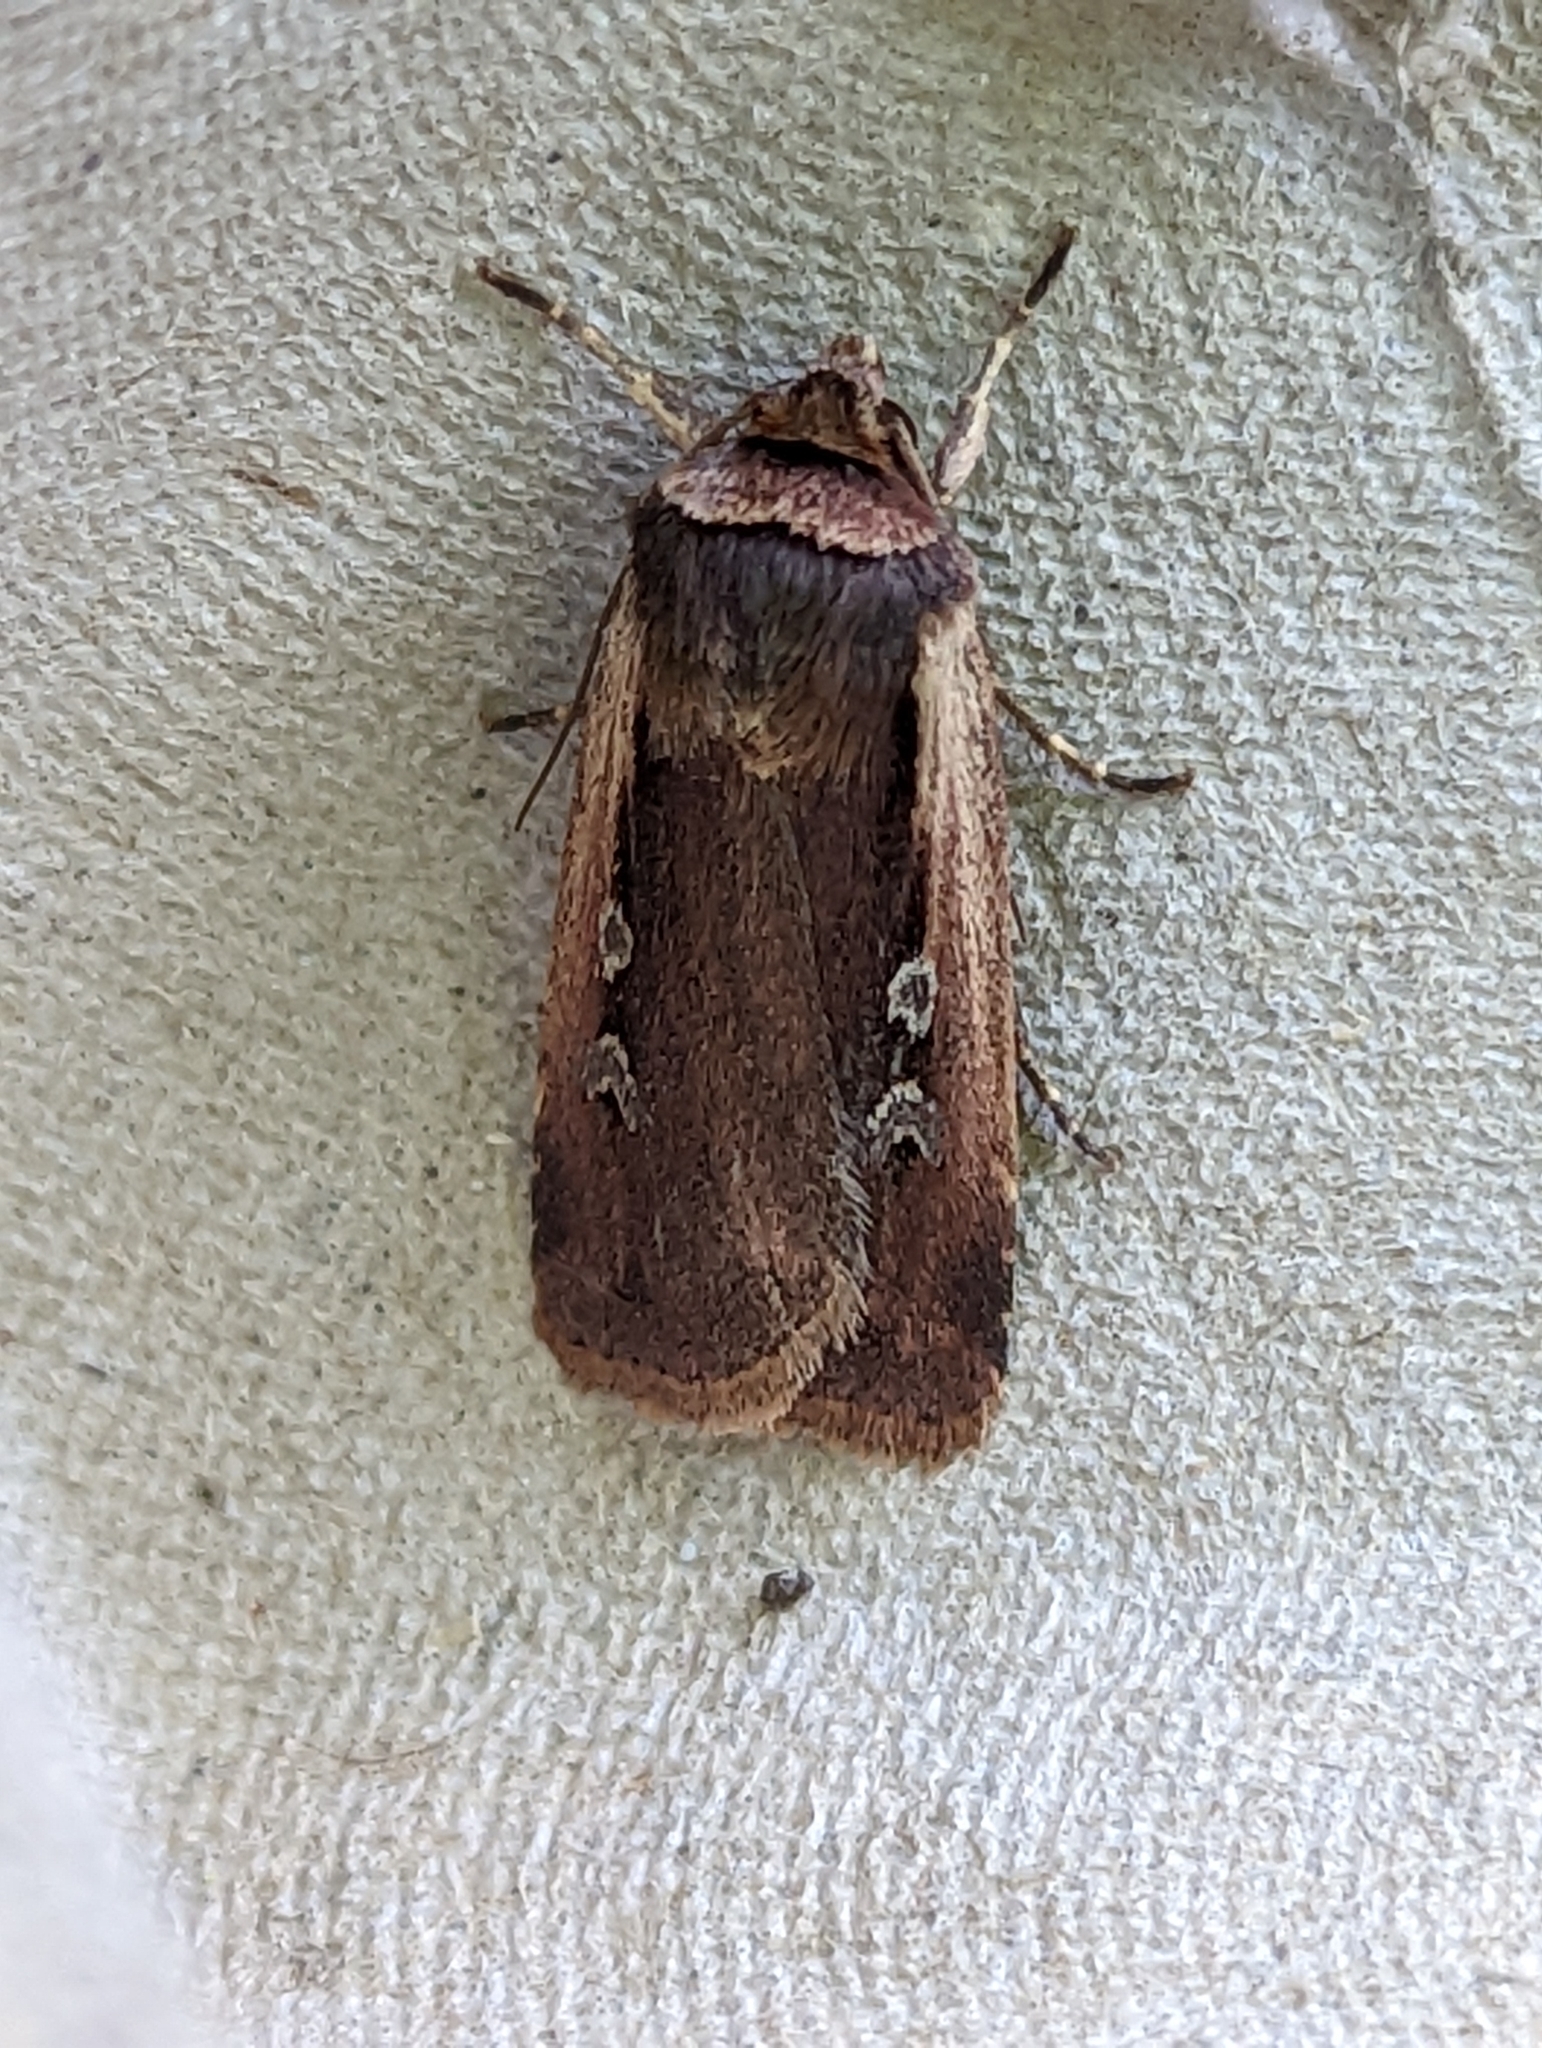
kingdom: Animalia
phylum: Arthropoda
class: Insecta
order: Lepidoptera
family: Noctuidae
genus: Ochropleura
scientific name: Ochropleura plecta
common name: Flame shoulder
